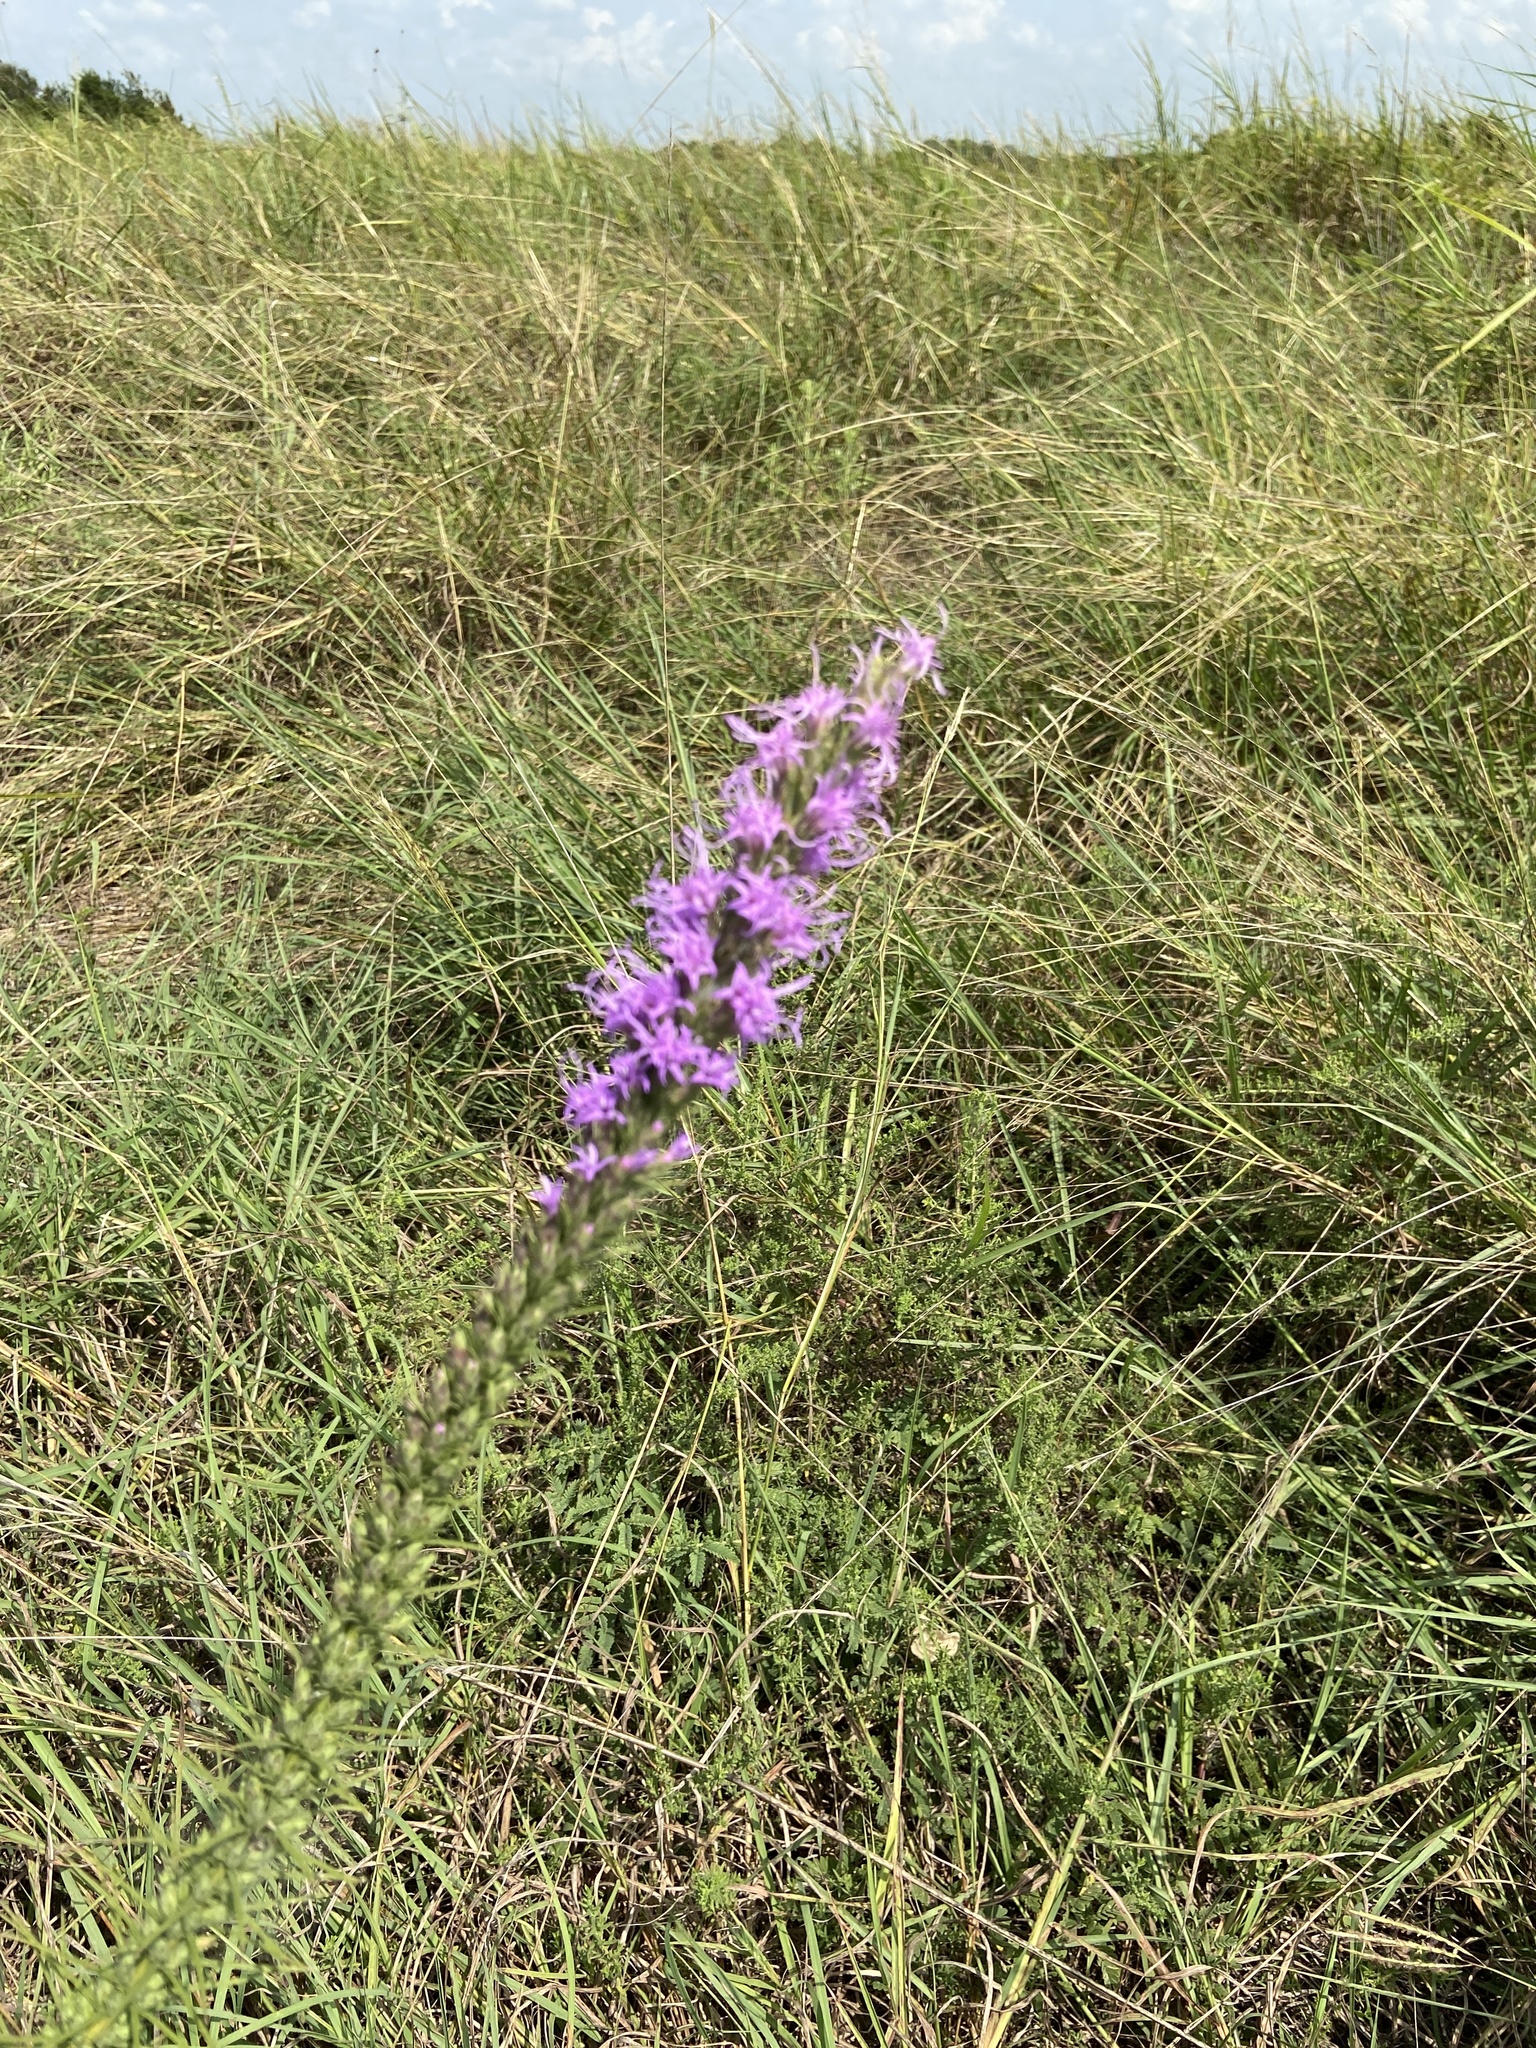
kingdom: Plantae
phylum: Tracheophyta
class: Magnoliopsida
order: Asterales
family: Asteraceae
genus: Liatris
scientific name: Liatris punctata
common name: Dotted gayfeather
